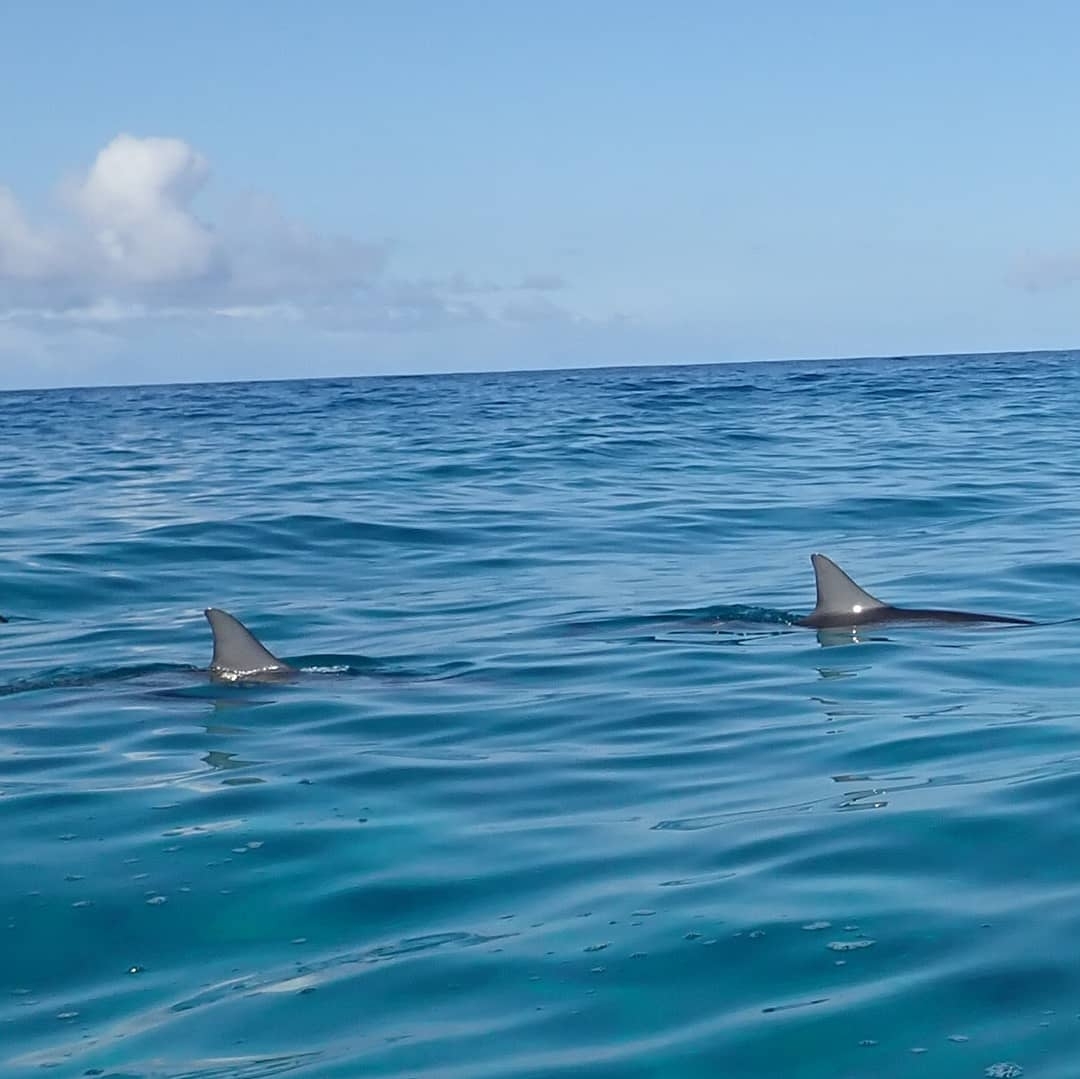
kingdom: Animalia
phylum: Chordata
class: Mammalia
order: Cetacea
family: Delphinidae
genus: Stenella
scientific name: Stenella longirostris
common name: Spinner dolphin
